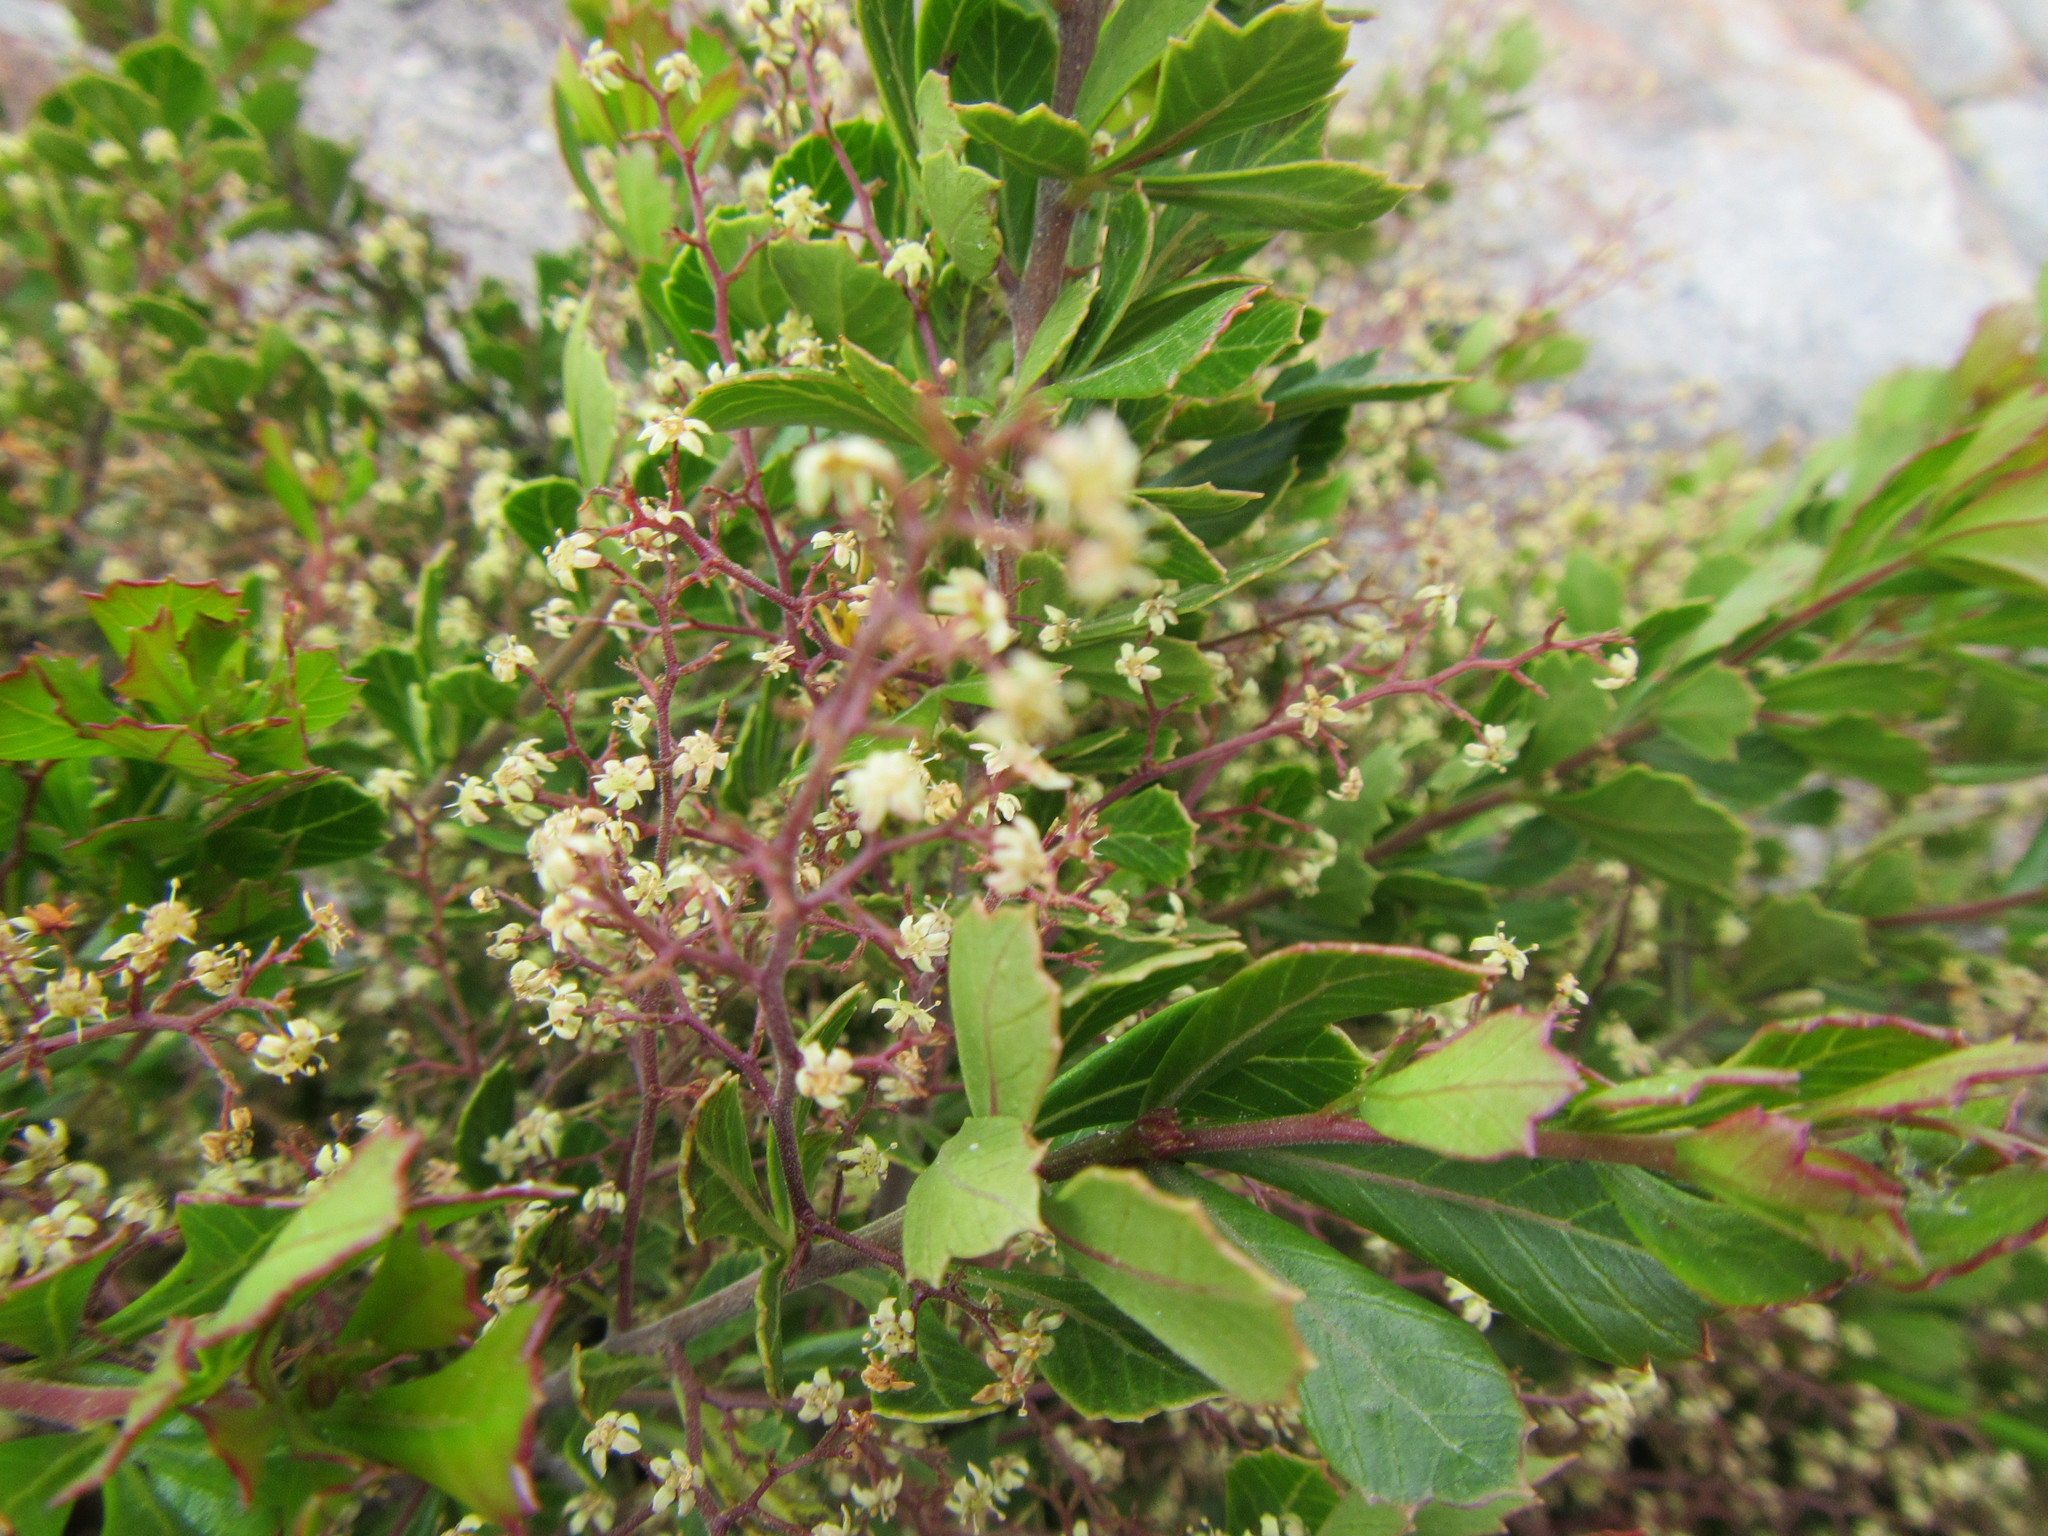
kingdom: Plantae
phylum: Tracheophyta
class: Magnoliopsida
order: Sapindales
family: Anacardiaceae
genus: Searsia
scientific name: Searsia cuneifolia
